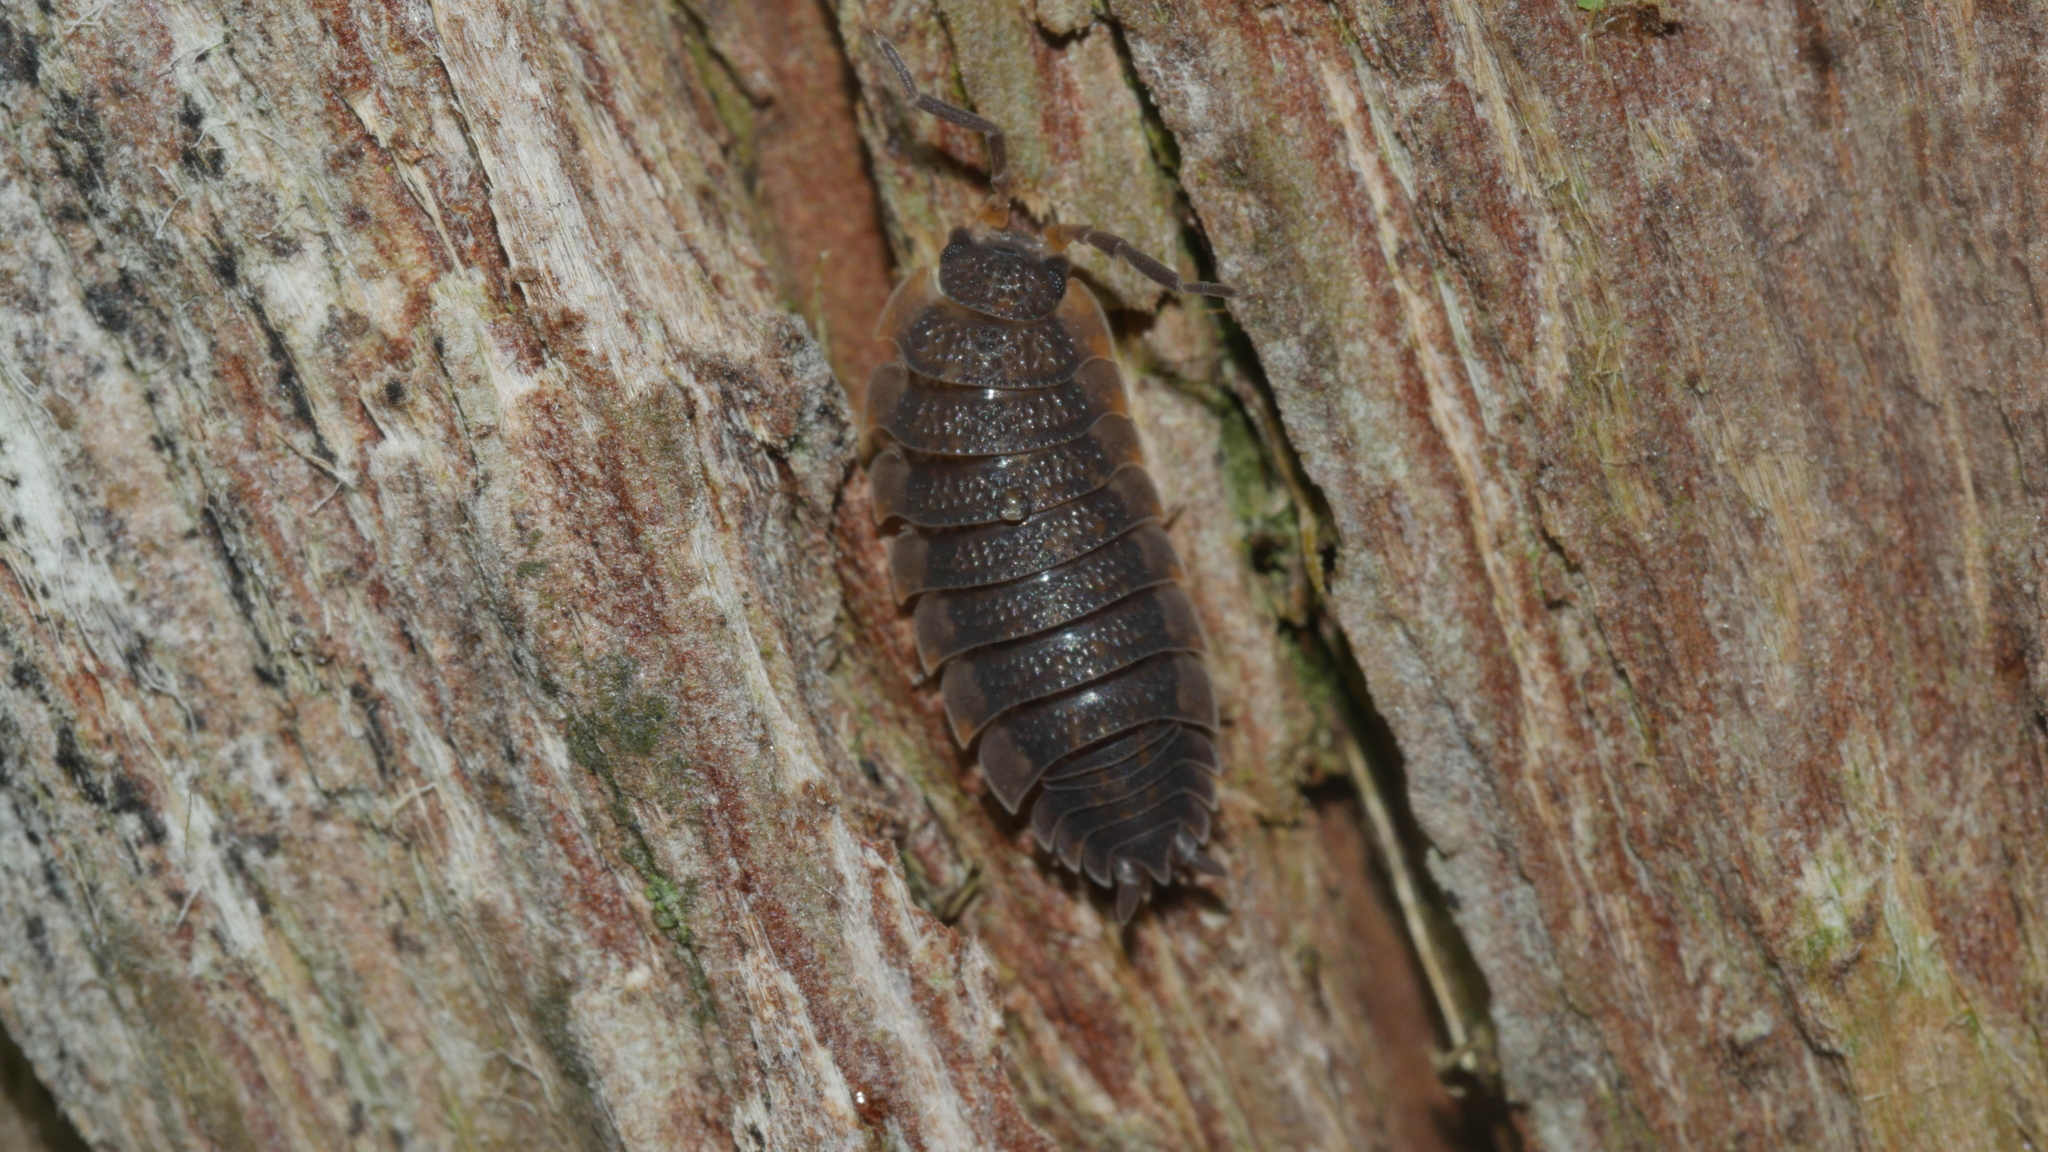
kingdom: Animalia
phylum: Arthropoda
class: Malacostraca
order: Isopoda
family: Porcellionidae
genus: Porcellio
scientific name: Porcellio scaber
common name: Common rough woodlouse
